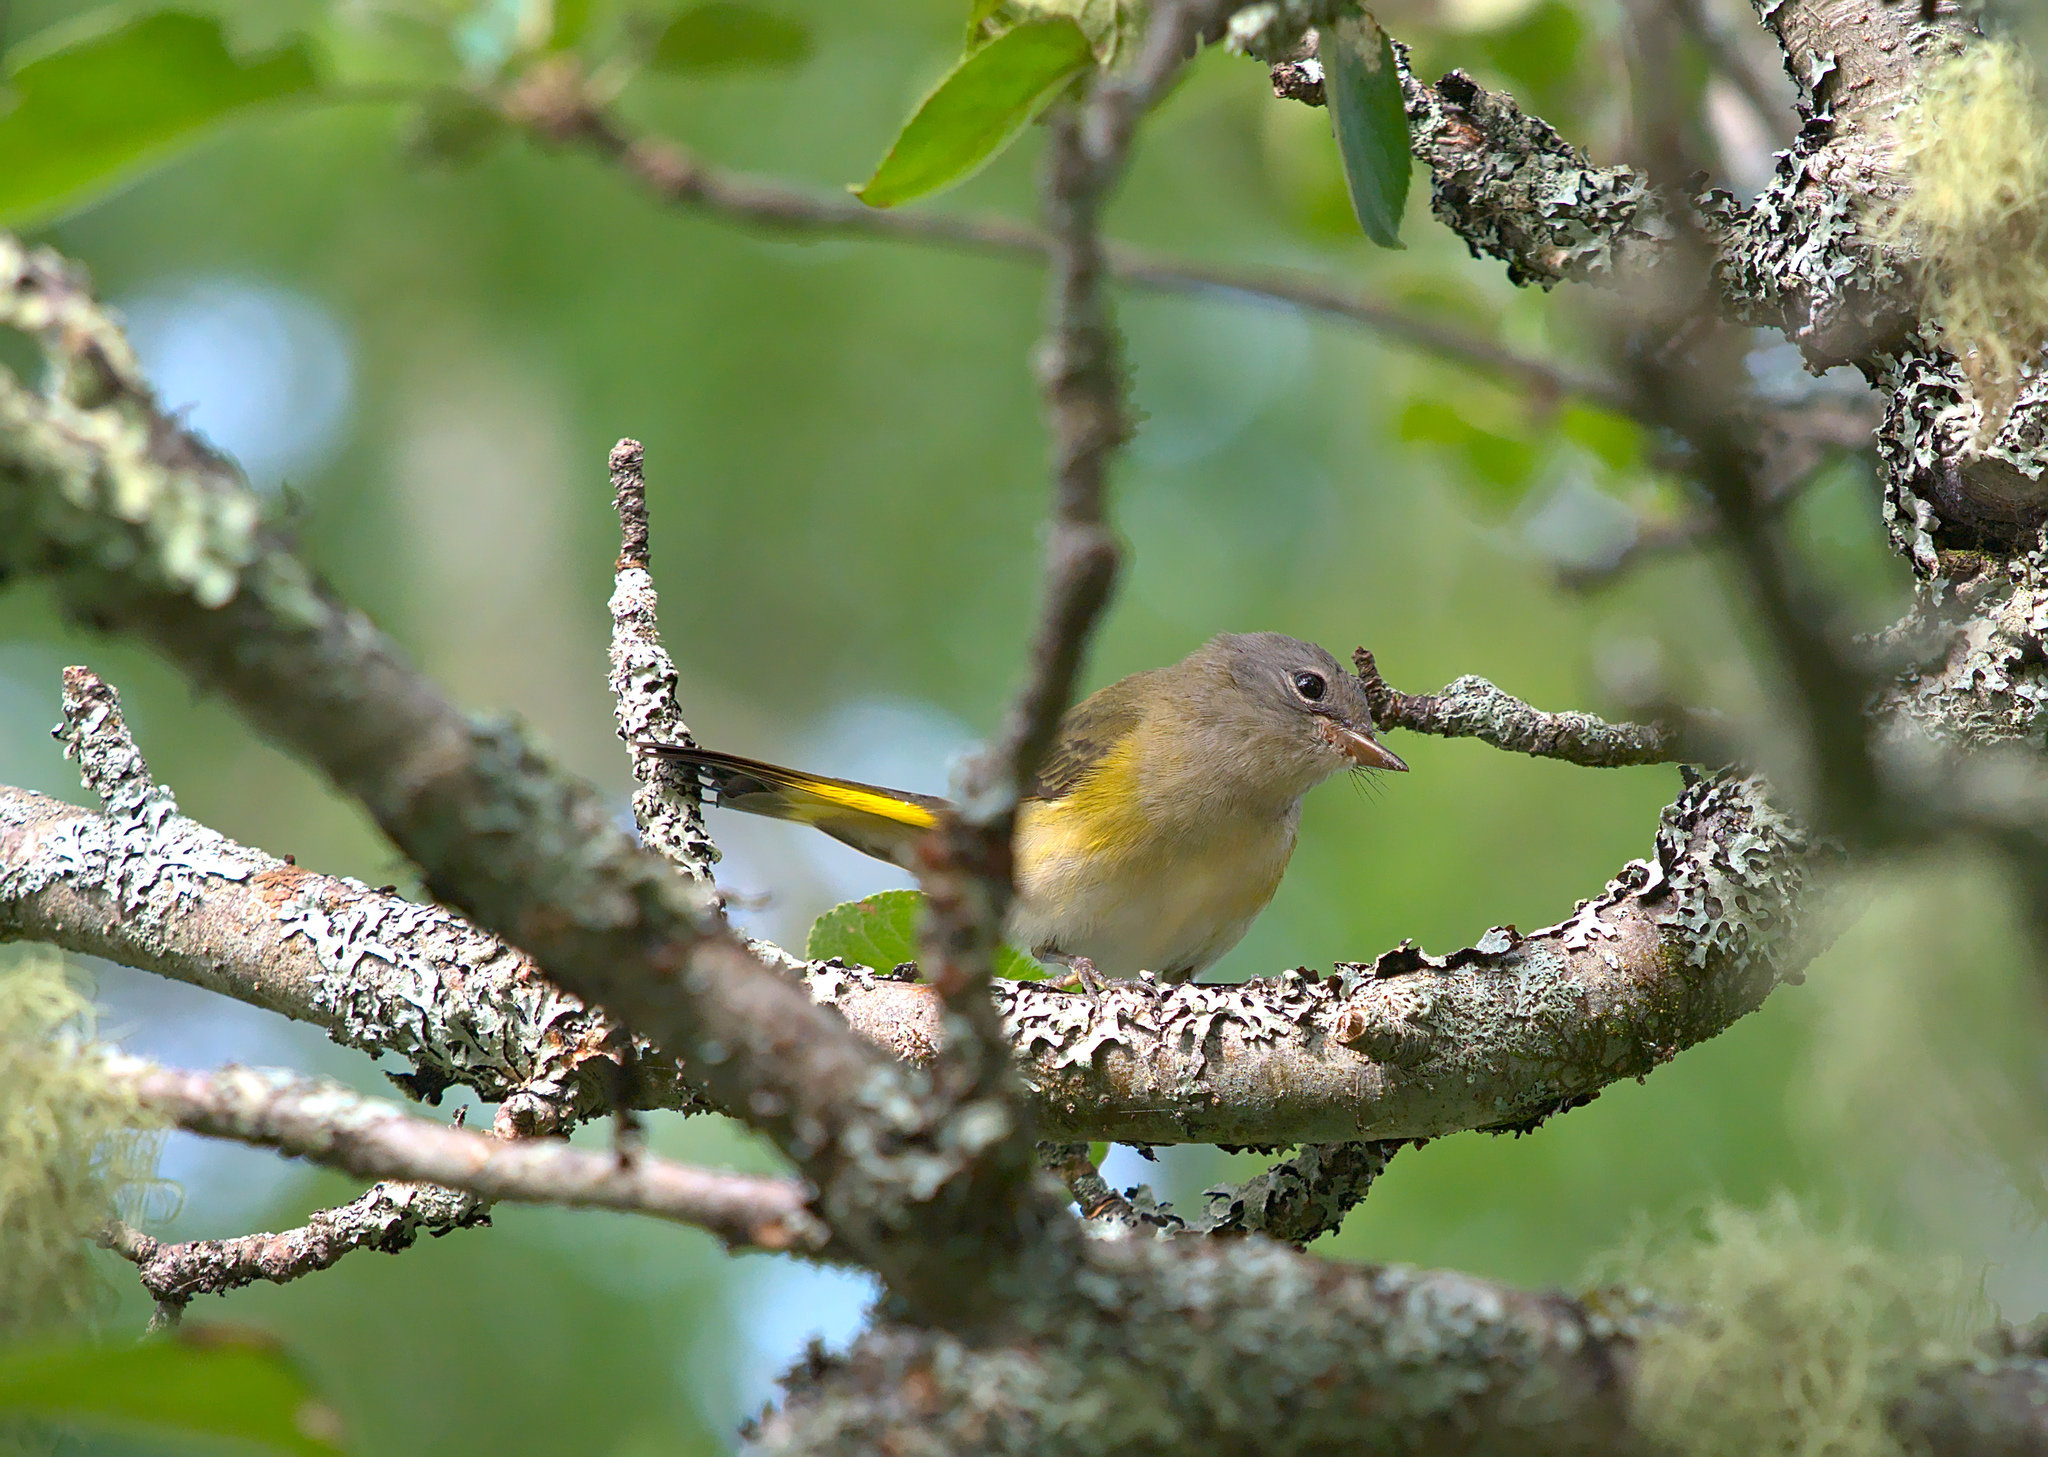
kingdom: Animalia
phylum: Chordata
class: Aves
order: Passeriformes
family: Parulidae
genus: Setophaga
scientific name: Setophaga ruticilla
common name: American redstart
